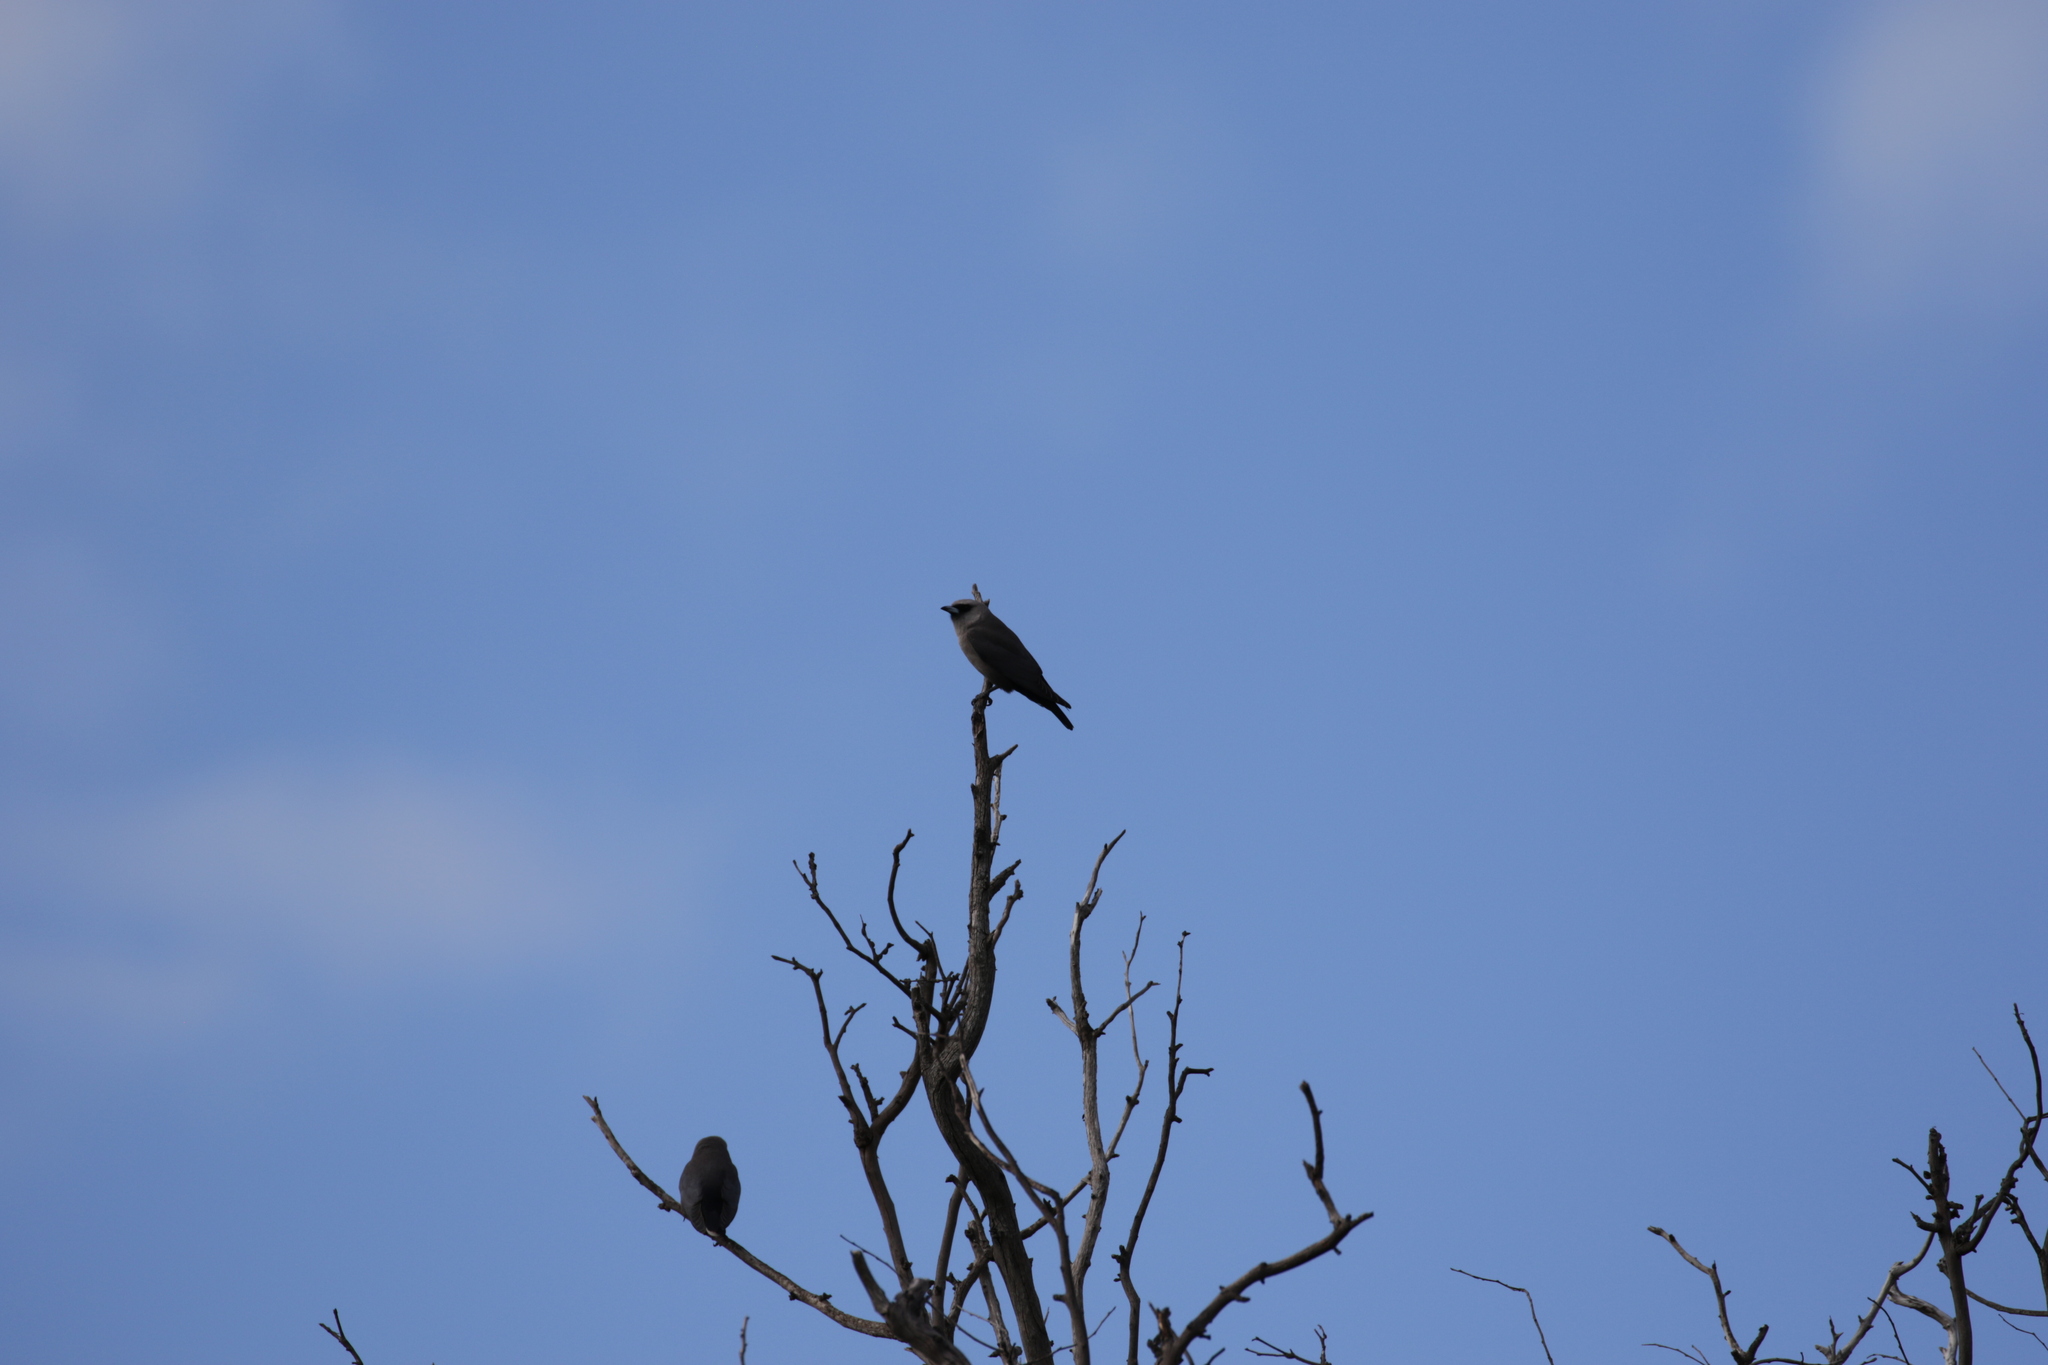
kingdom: Animalia
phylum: Chordata
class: Aves
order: Passeriformes
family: Artamidae
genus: Artamus
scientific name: Artamus cinereus
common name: Black-faced woodswallow
